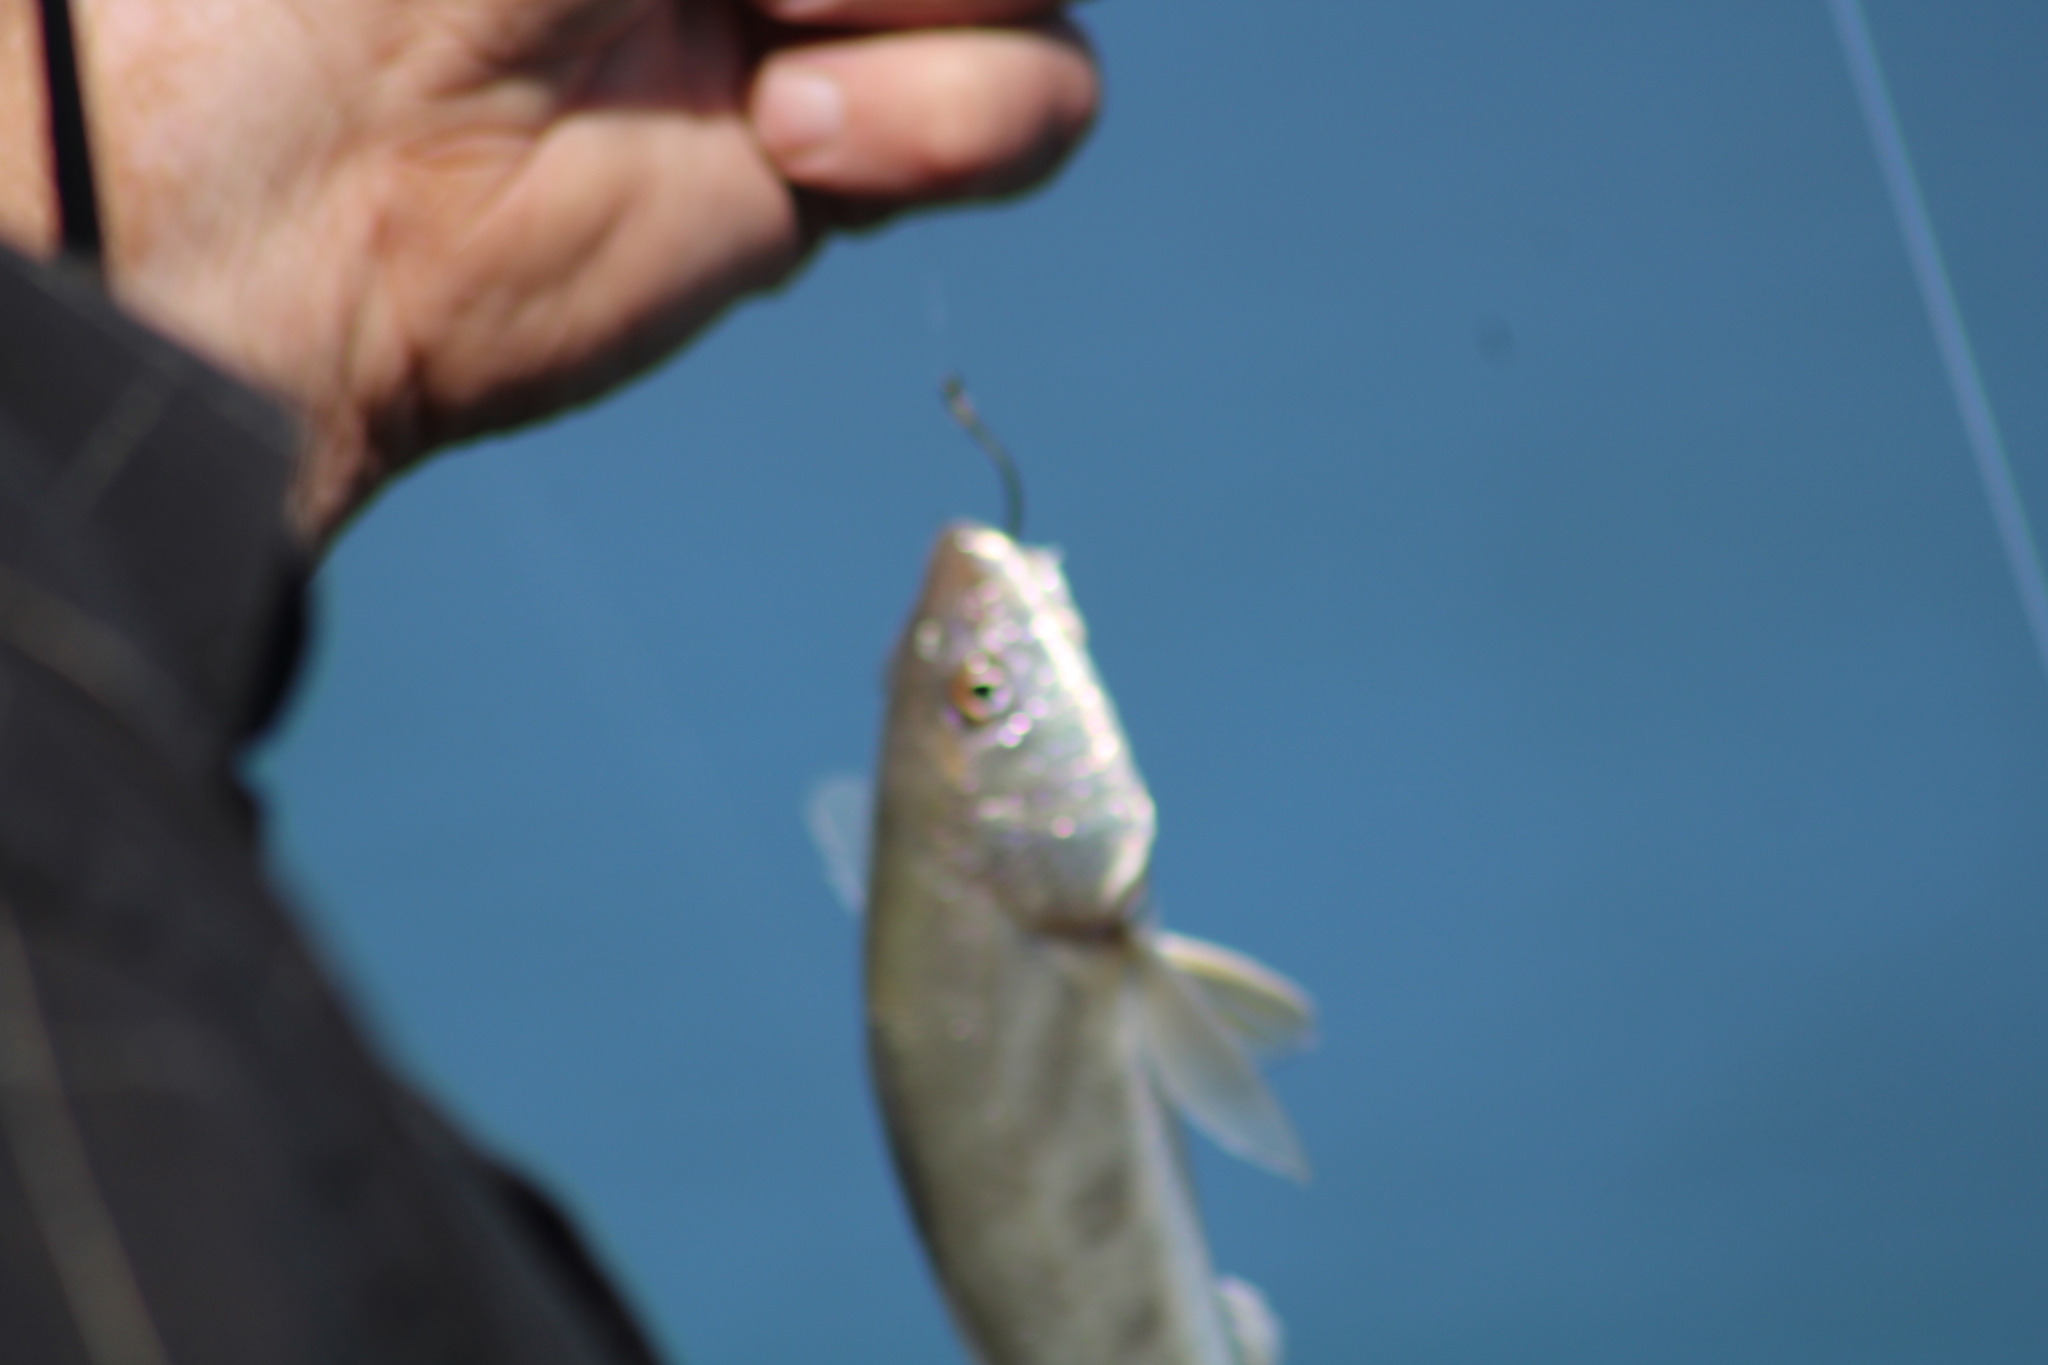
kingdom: Animalia
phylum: Chordata
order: Perciformes
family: Sciaenidae
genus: Menticirrhus
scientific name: Menticirrhus americanus
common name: Southern kingfish
